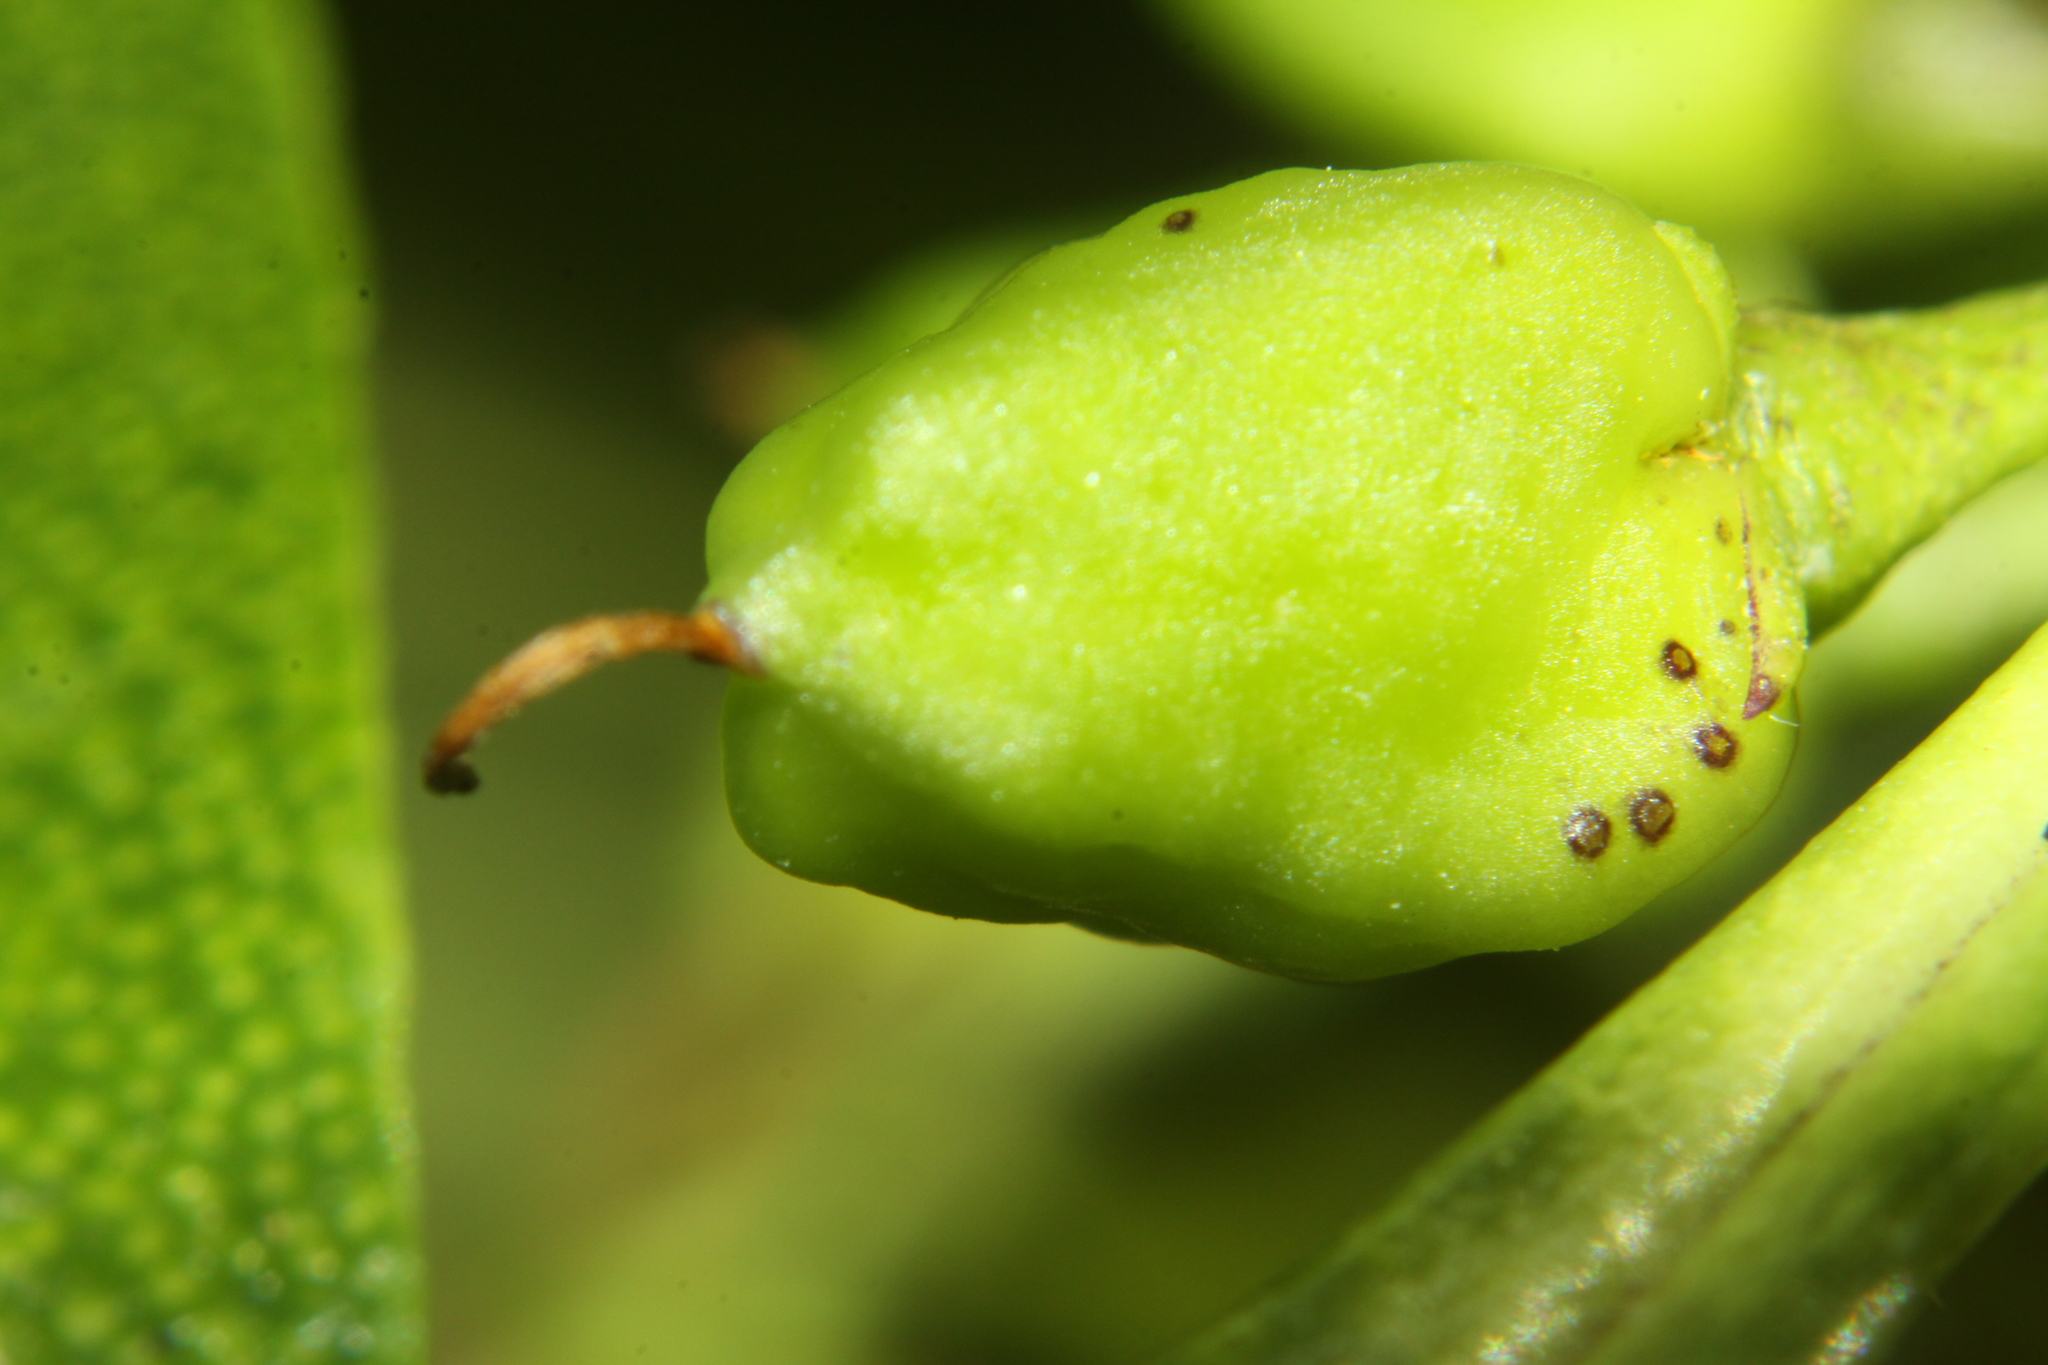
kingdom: Plantae
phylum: Tracheophyta
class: Magnoliopsida
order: Lamiales
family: Scrophulariaceae
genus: Myoporum
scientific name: Myoporum laetum
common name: Ngaio tree
